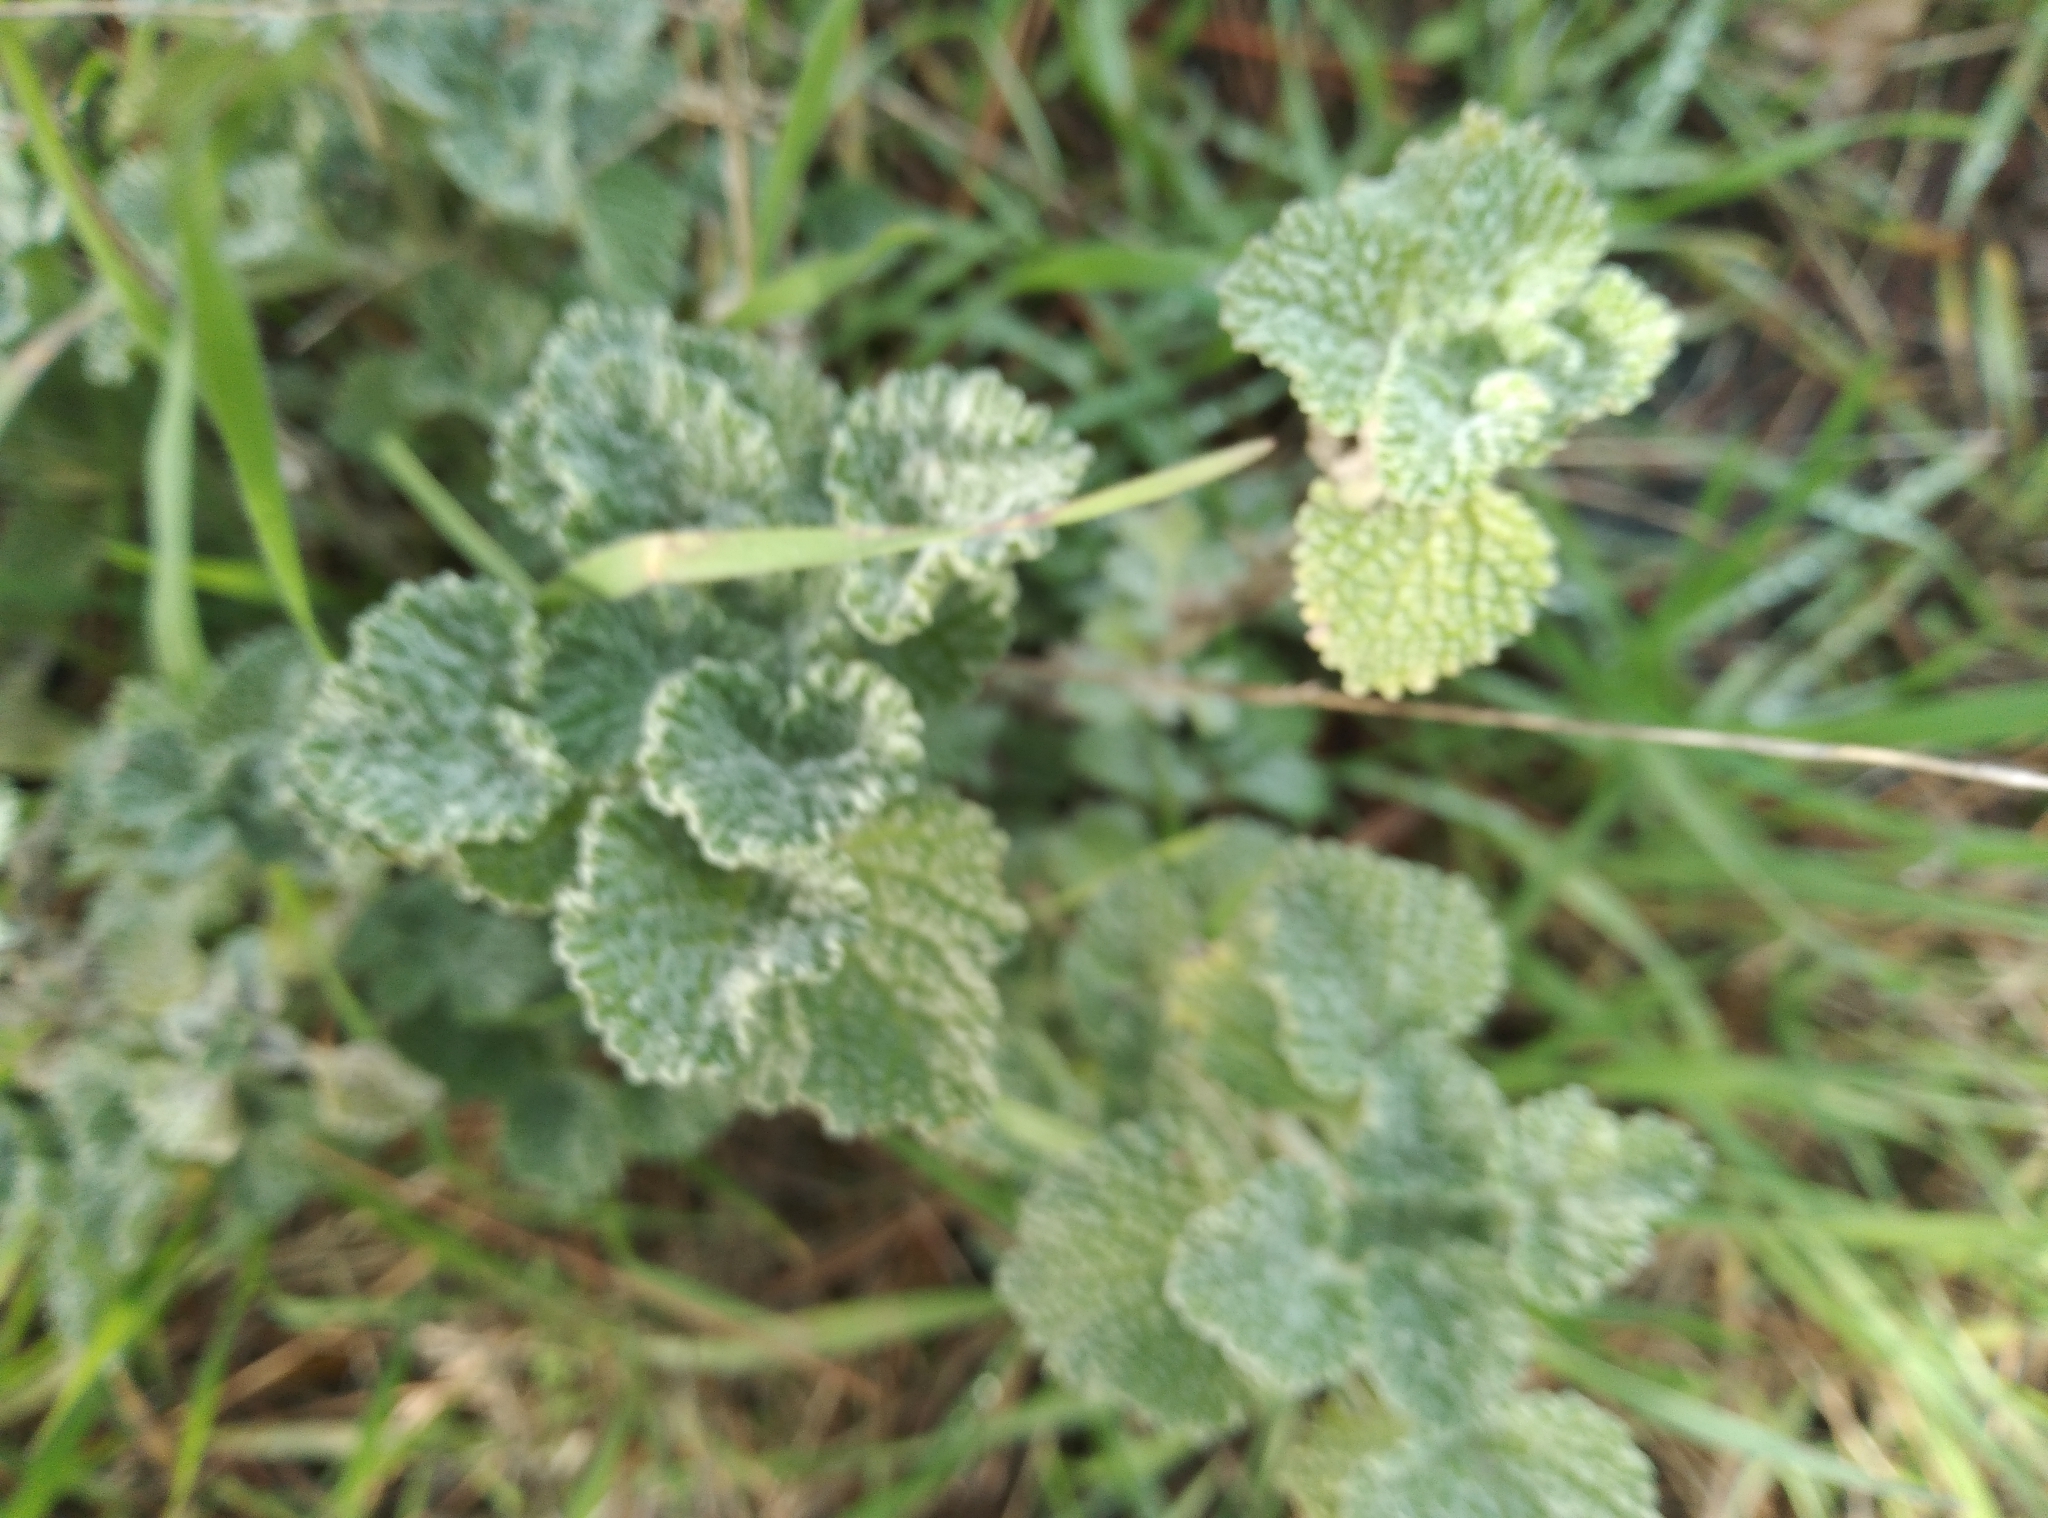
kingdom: Plantae
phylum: Tracheophyta
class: Magnoliopsida
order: Lamiales
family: Lamiaceae
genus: Marrubium
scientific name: Marrubium vulgare
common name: Horehound
